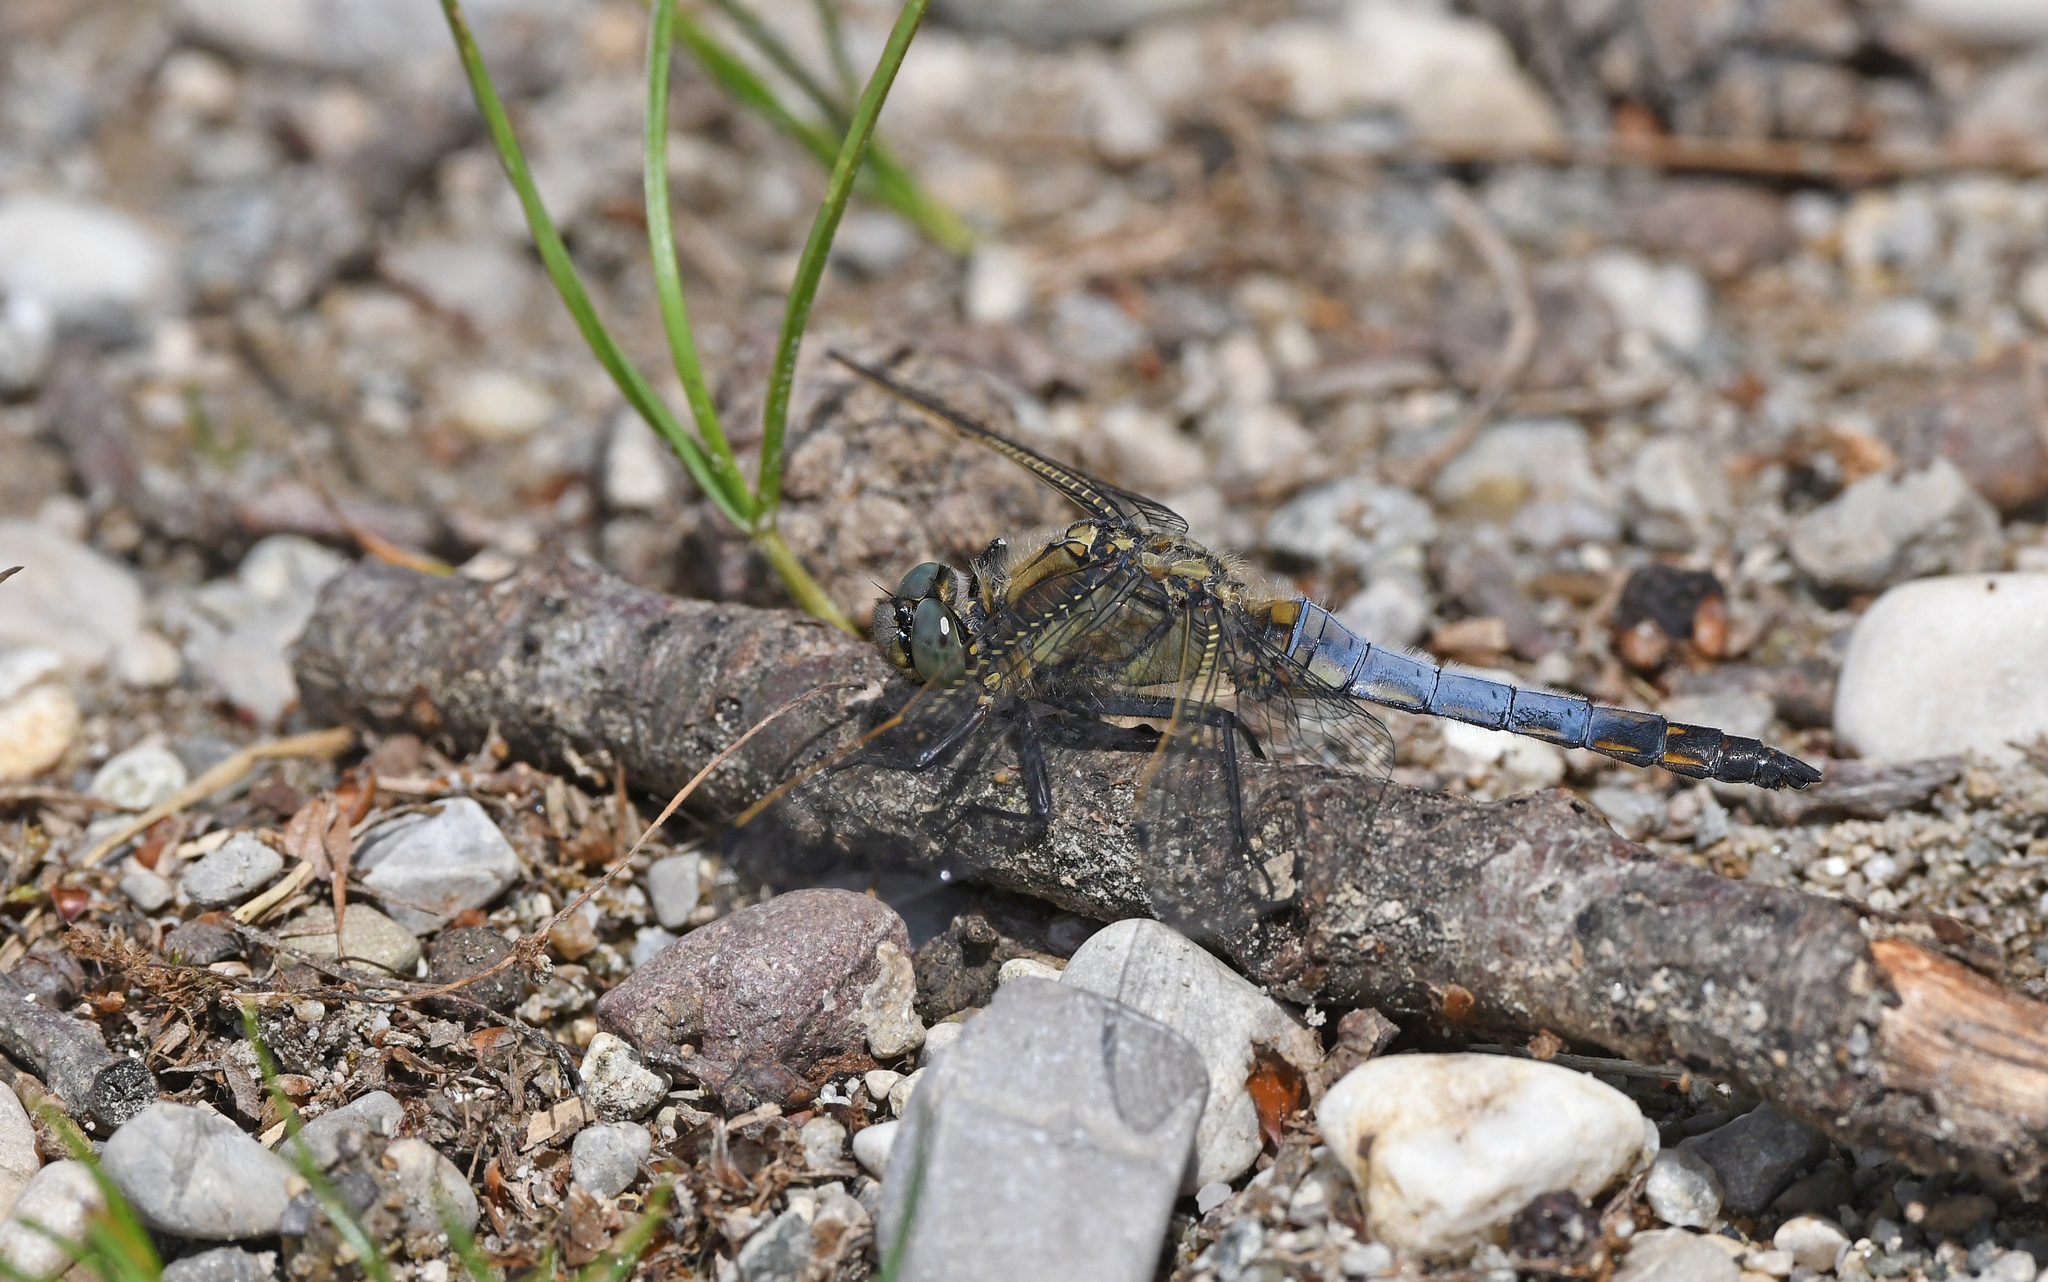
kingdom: Animalia
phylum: Arthropoda
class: Insecta
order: Odonata
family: Libellulidae
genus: Orthetrum
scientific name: Orthetrum cancellatum
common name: Black-tailed skimmer
